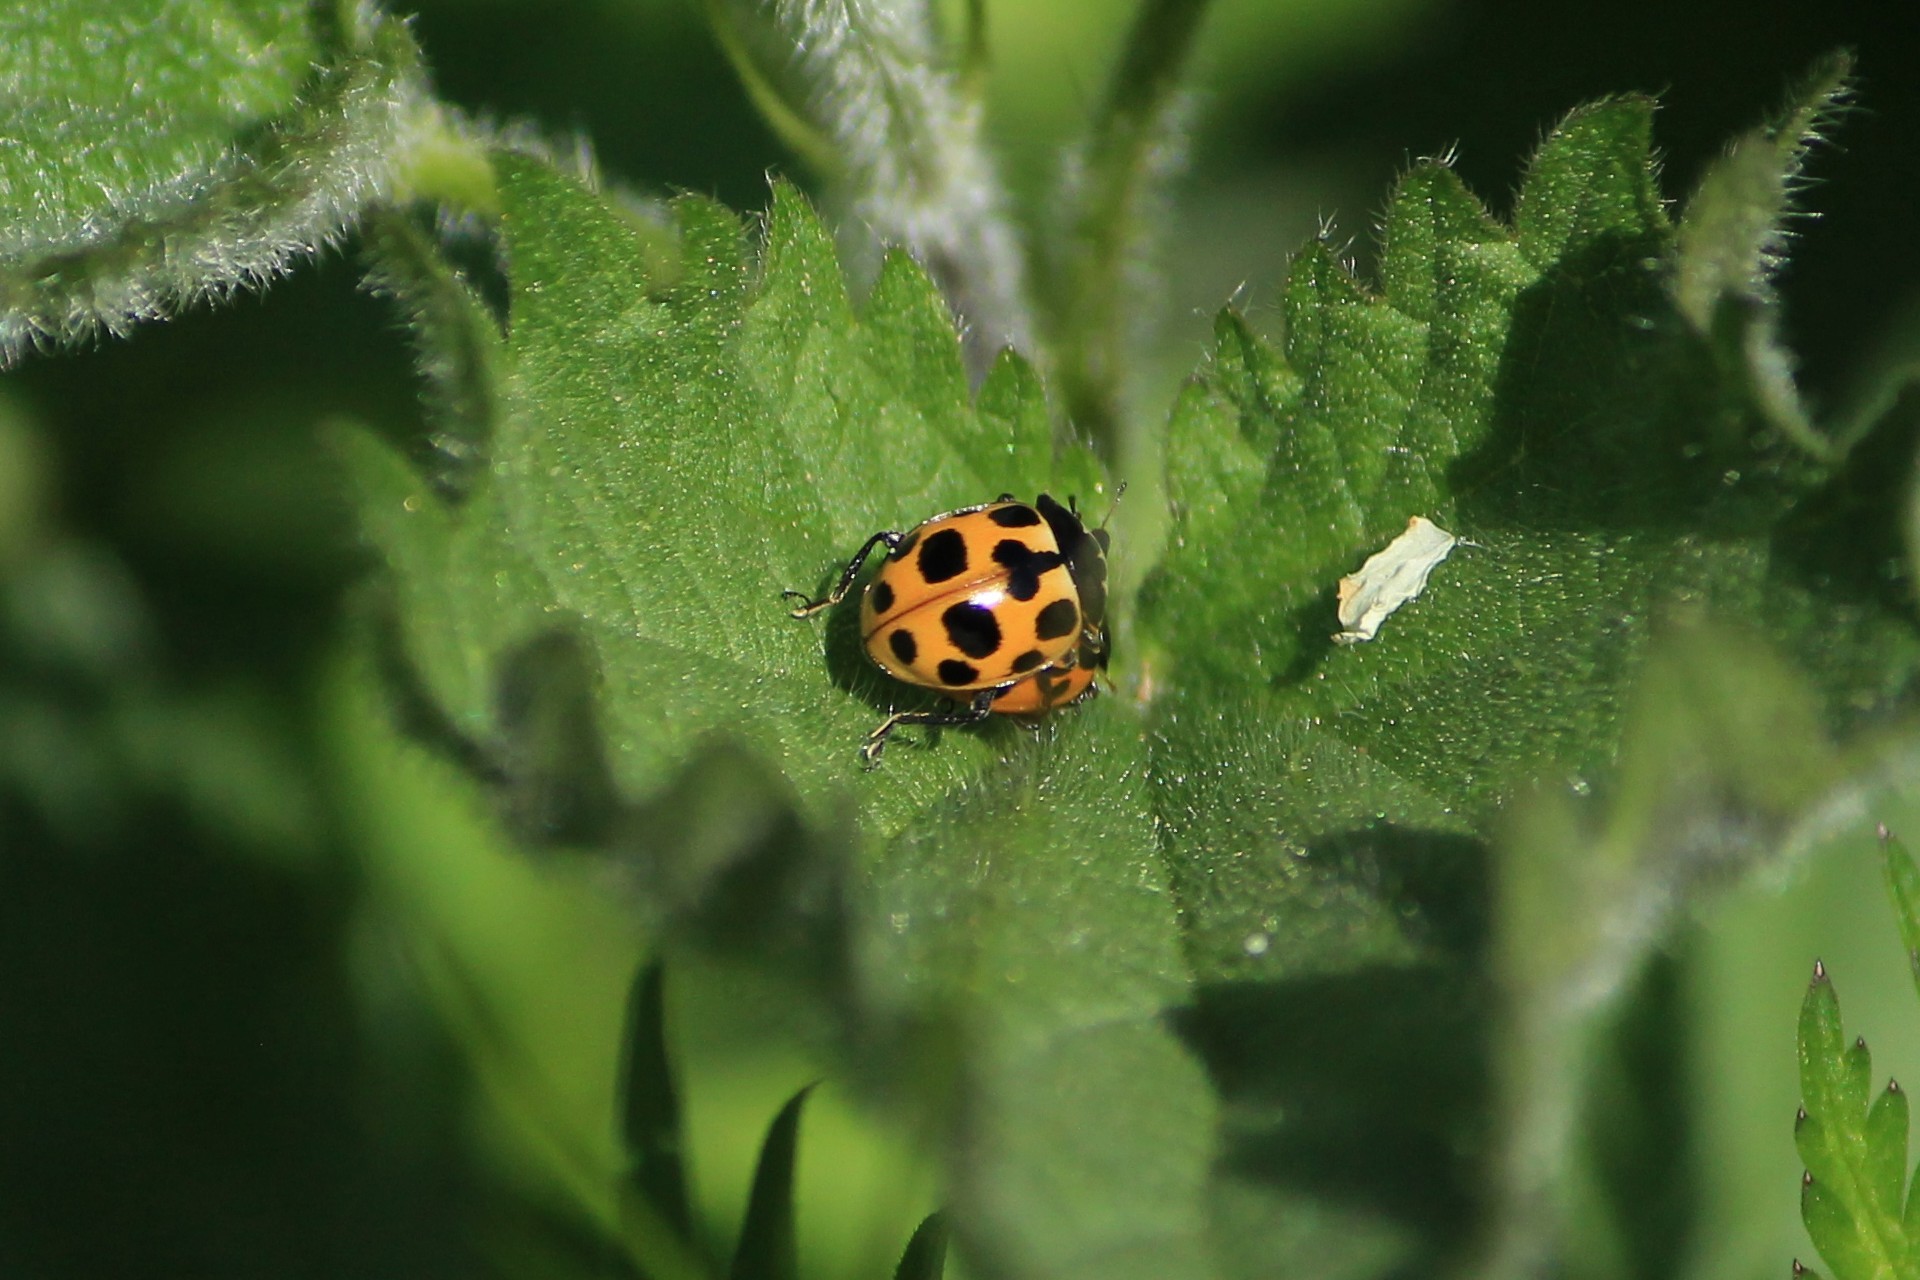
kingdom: Animalia
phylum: Arthropoda
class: Insecta
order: Coleoptera
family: Coccinellidae
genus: Ceratomegilla
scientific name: Ceratomegilla notata
